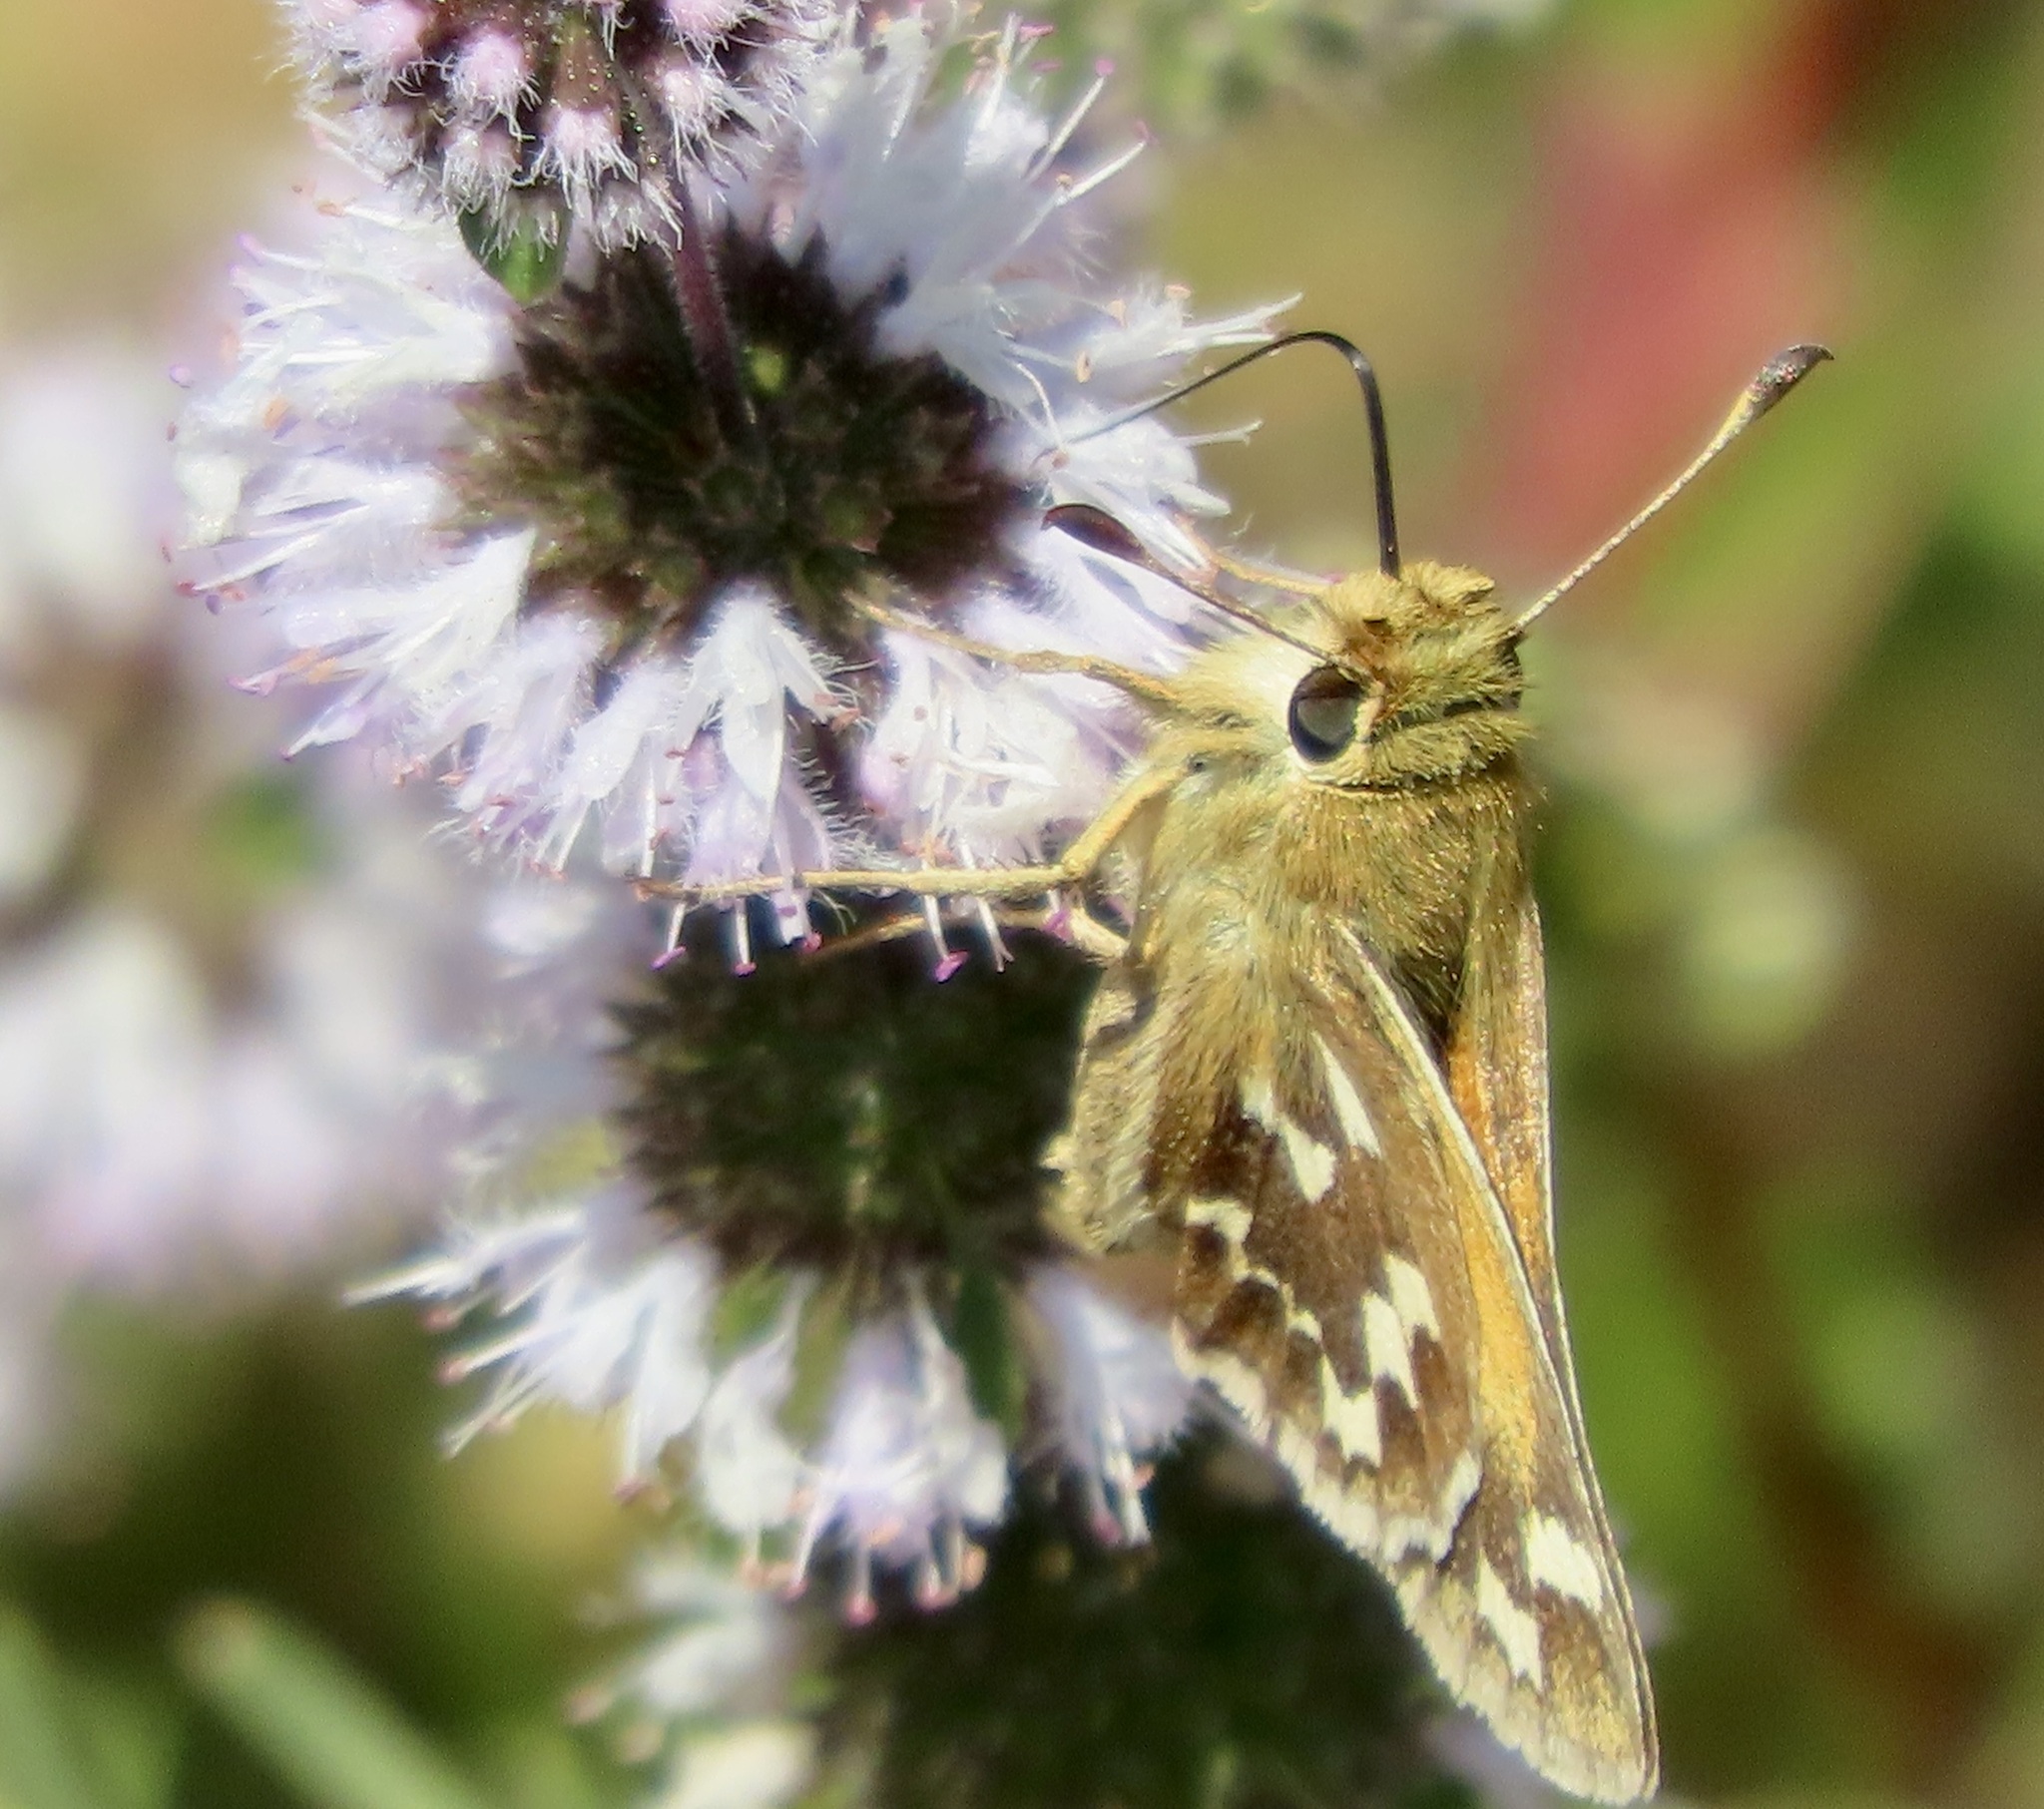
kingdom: Animalia
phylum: Arthropoda
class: Insecta
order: Lepidoptera
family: Hesperiidae
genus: Hesperia
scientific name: Hesperia harpalus
